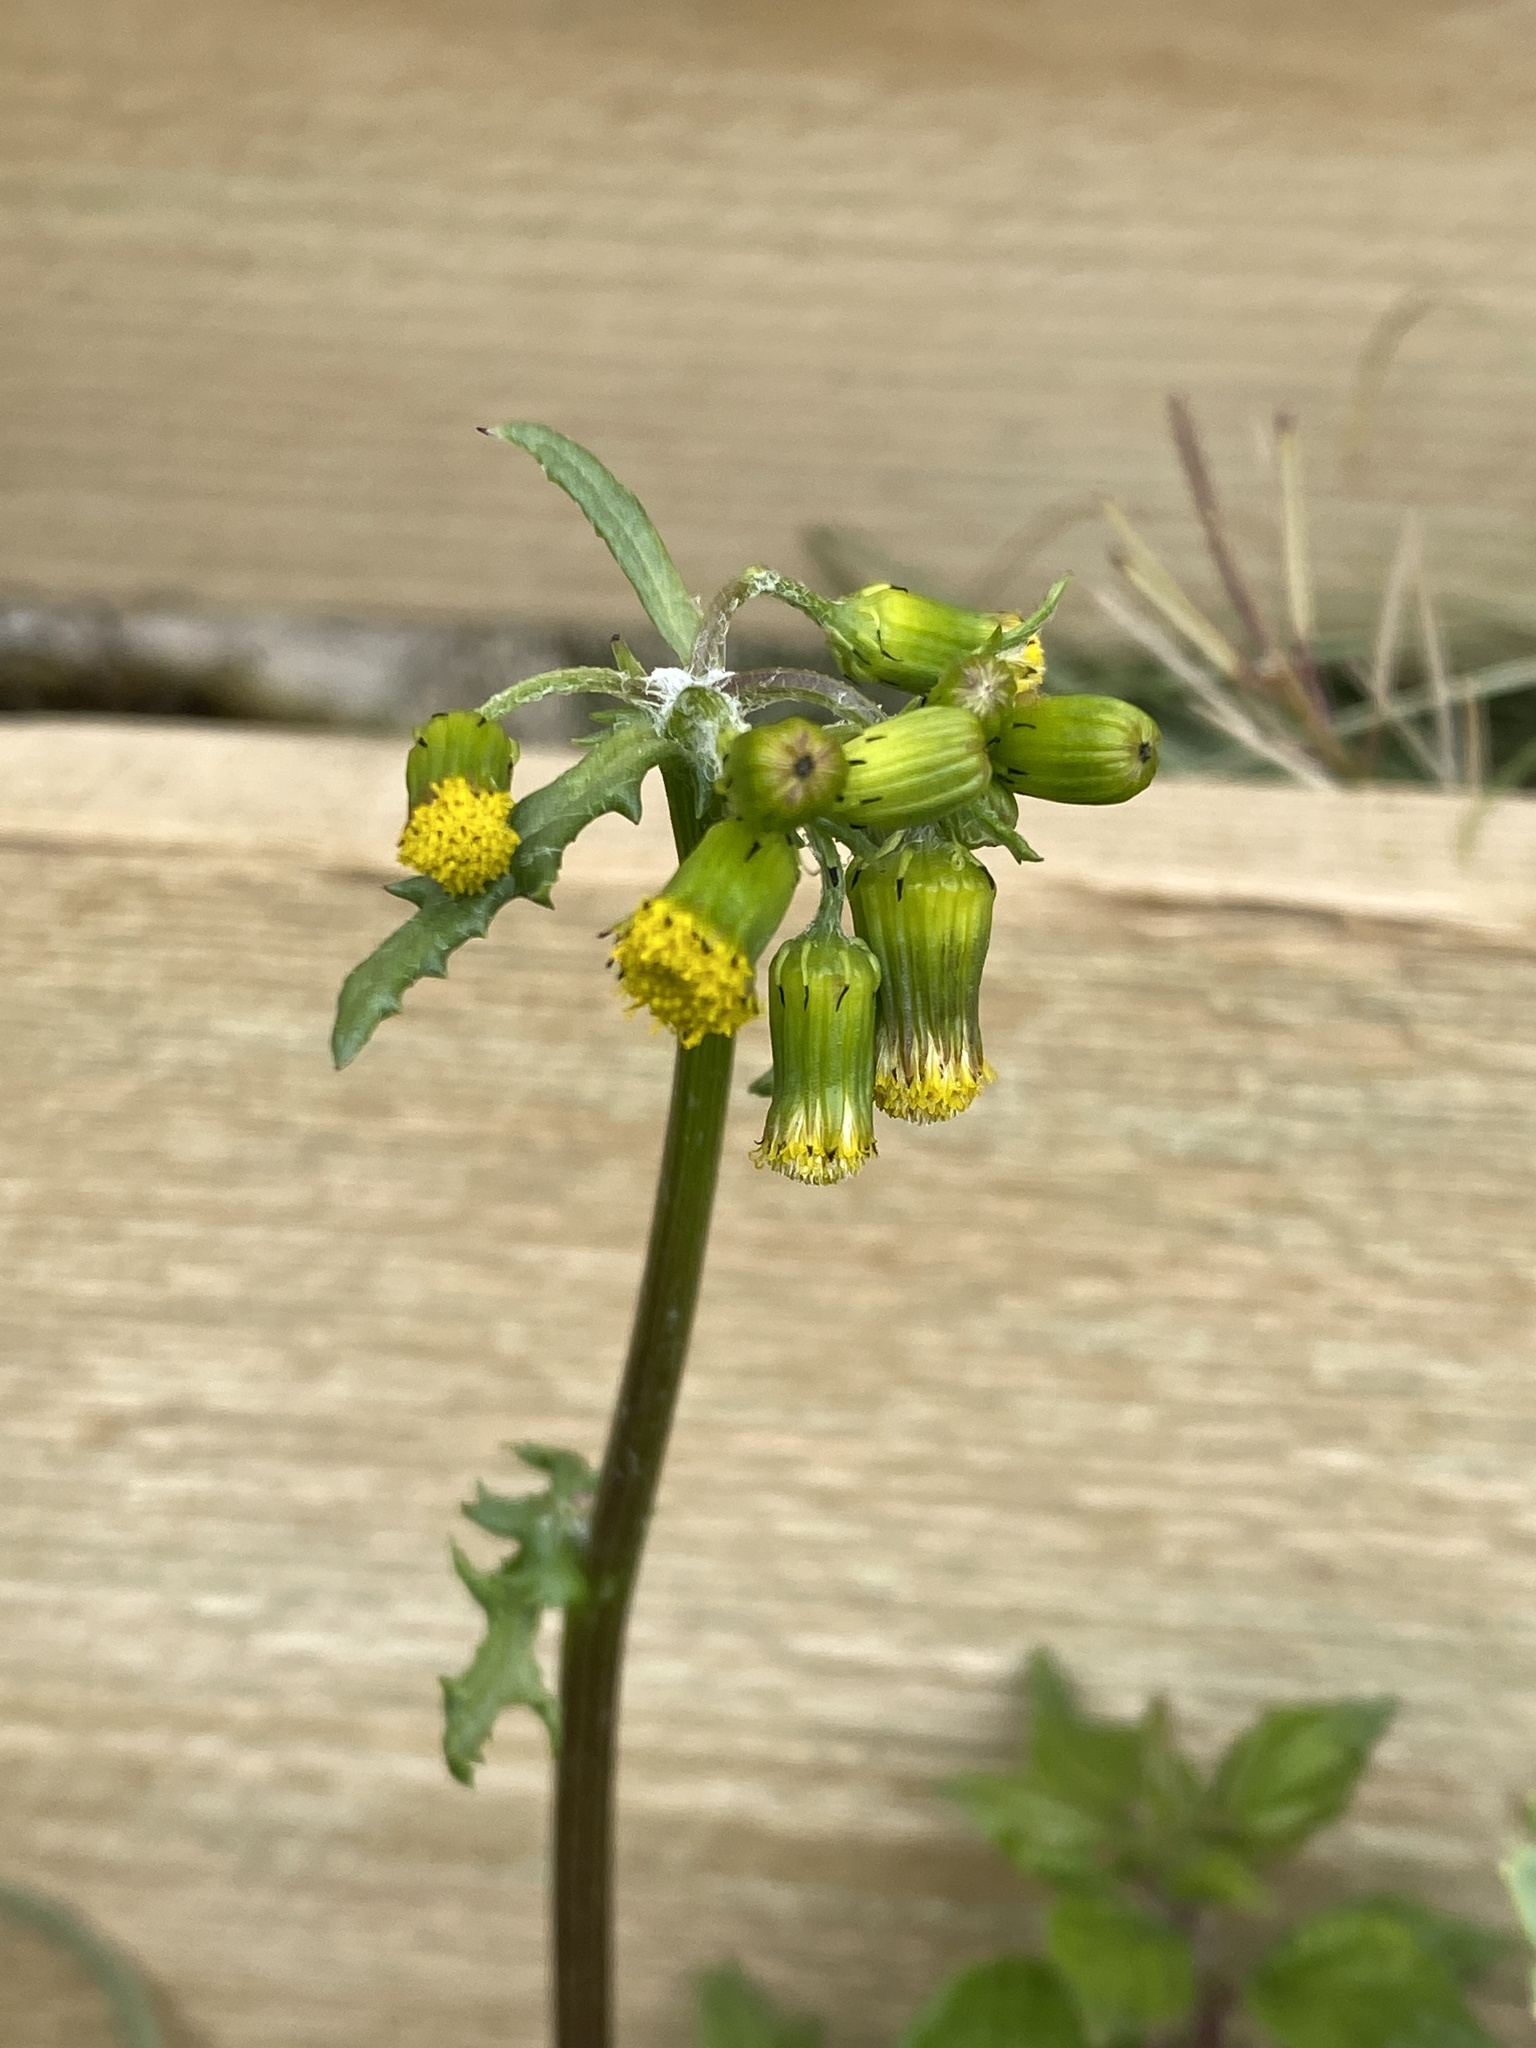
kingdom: Plantae
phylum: Tracheophyta
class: Magnoliopsida
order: Asterales
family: Asteraceae
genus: Senecio
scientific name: Senecio vulgaris
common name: Old-man-in-the-spring
